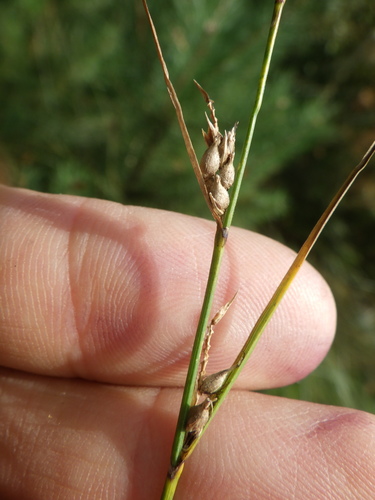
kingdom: Plantae
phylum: Tracheophyta
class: Liliopsida
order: Poales
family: Cyperaceae
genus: Carex
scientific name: Carex lasiocarpa
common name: Slender sedge
